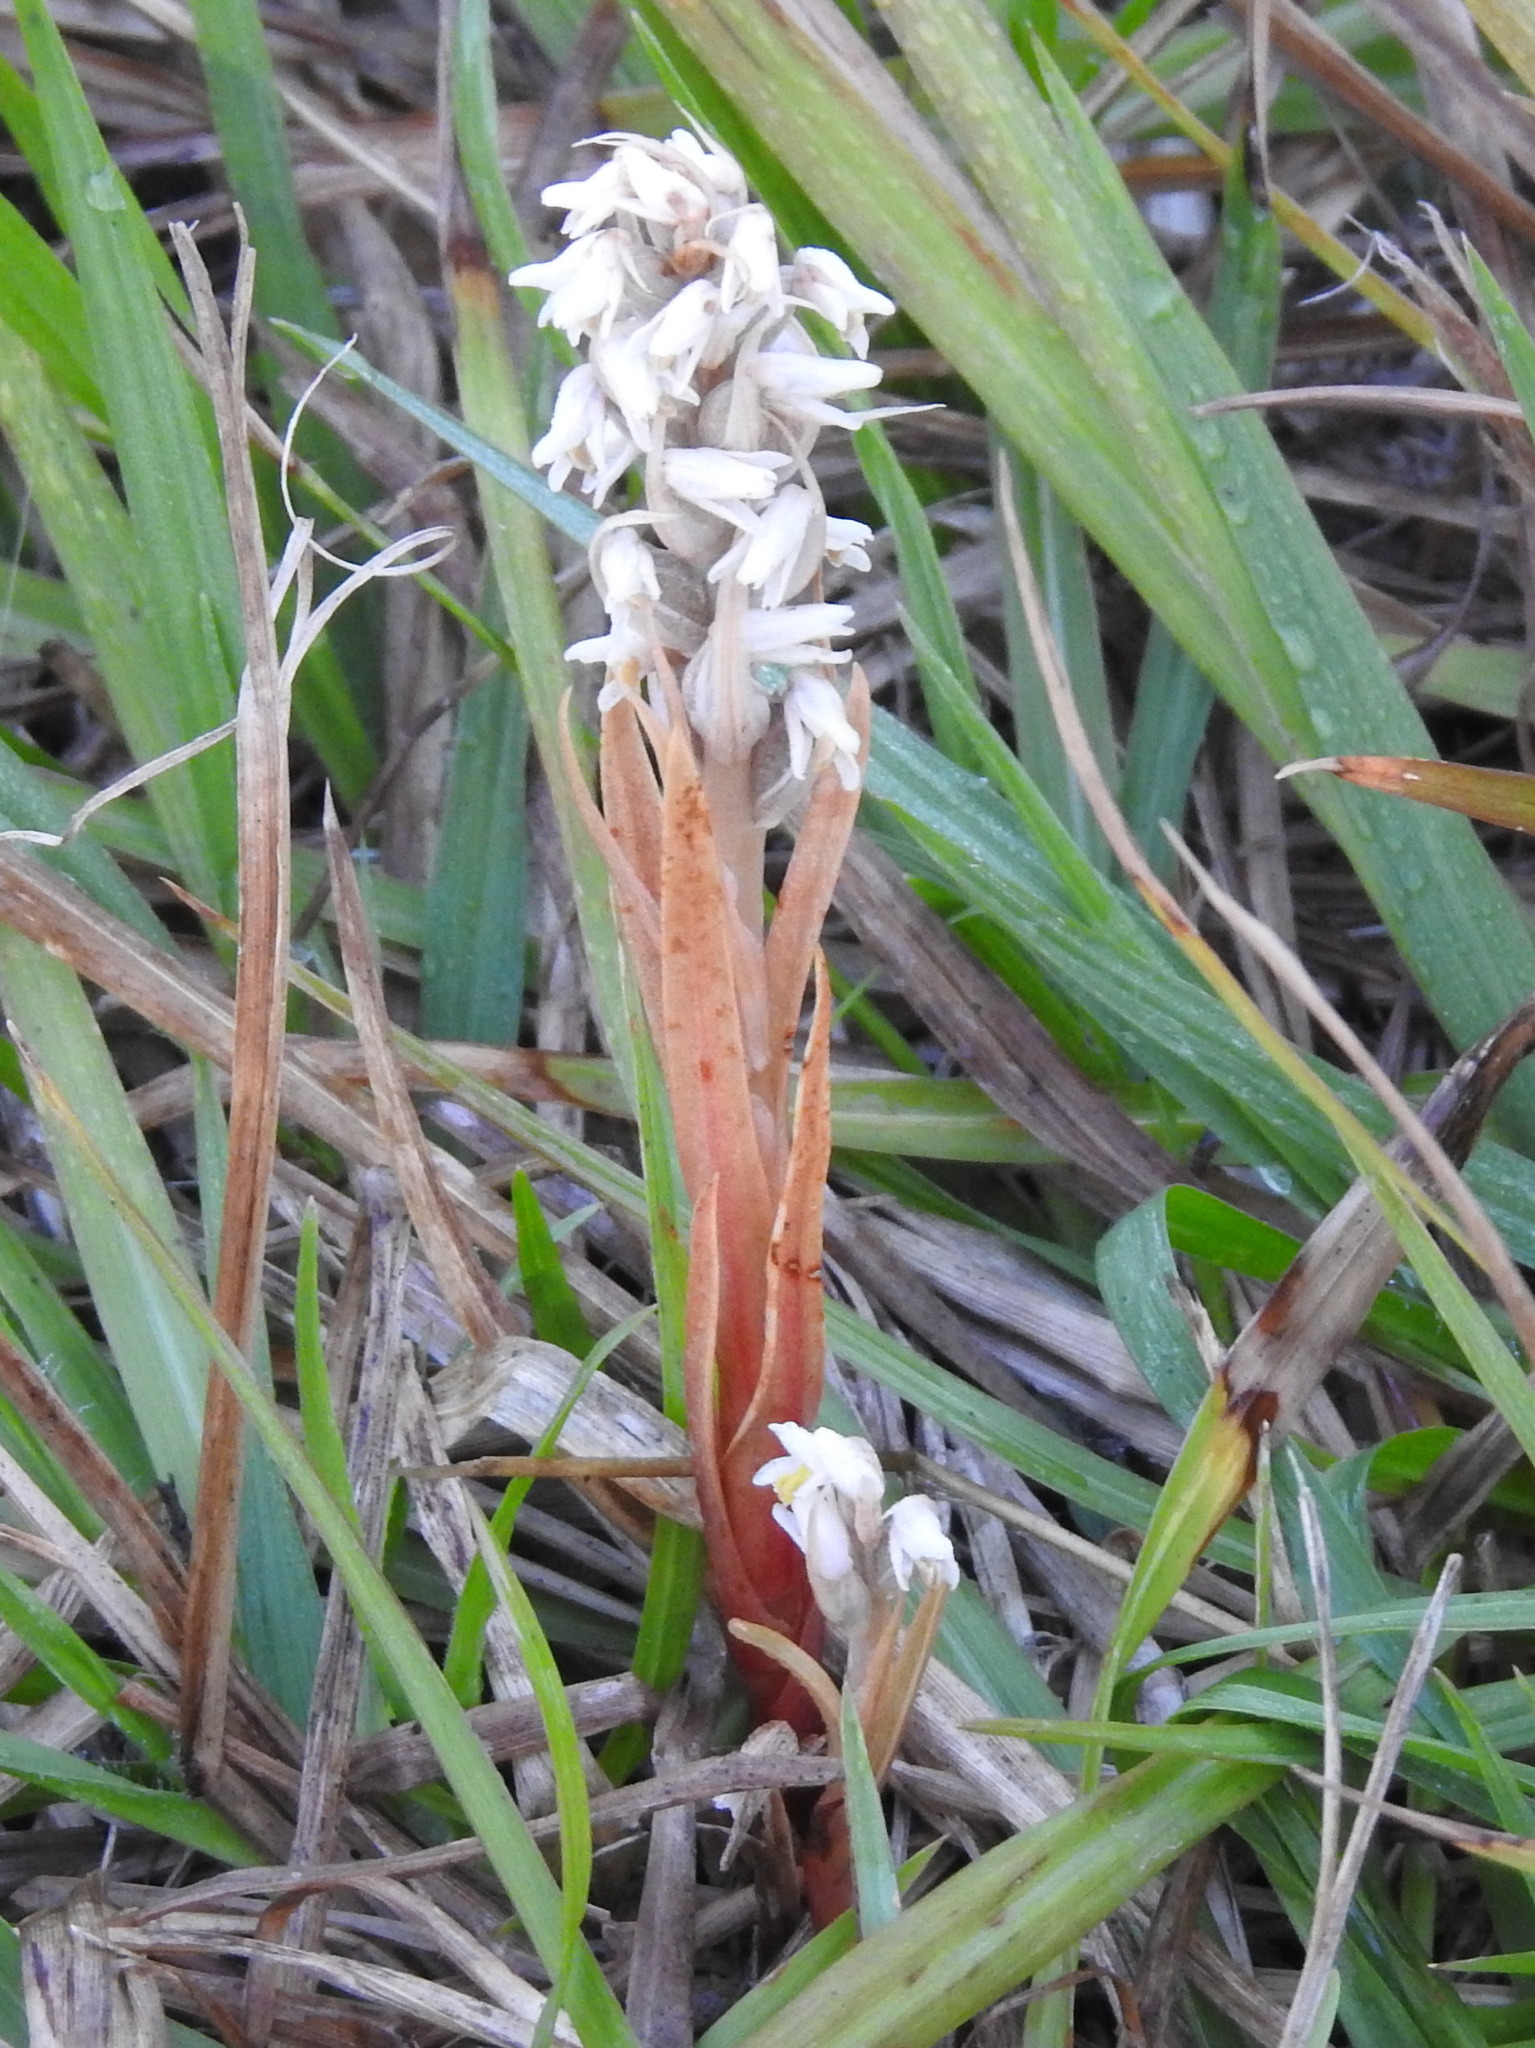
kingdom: Plantae
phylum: Tracheophyta
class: Liliopsida
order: Asparagales
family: Orchidaceae
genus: Zeuxine
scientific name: Zeuxine strateumatica
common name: Soldier's orchid
